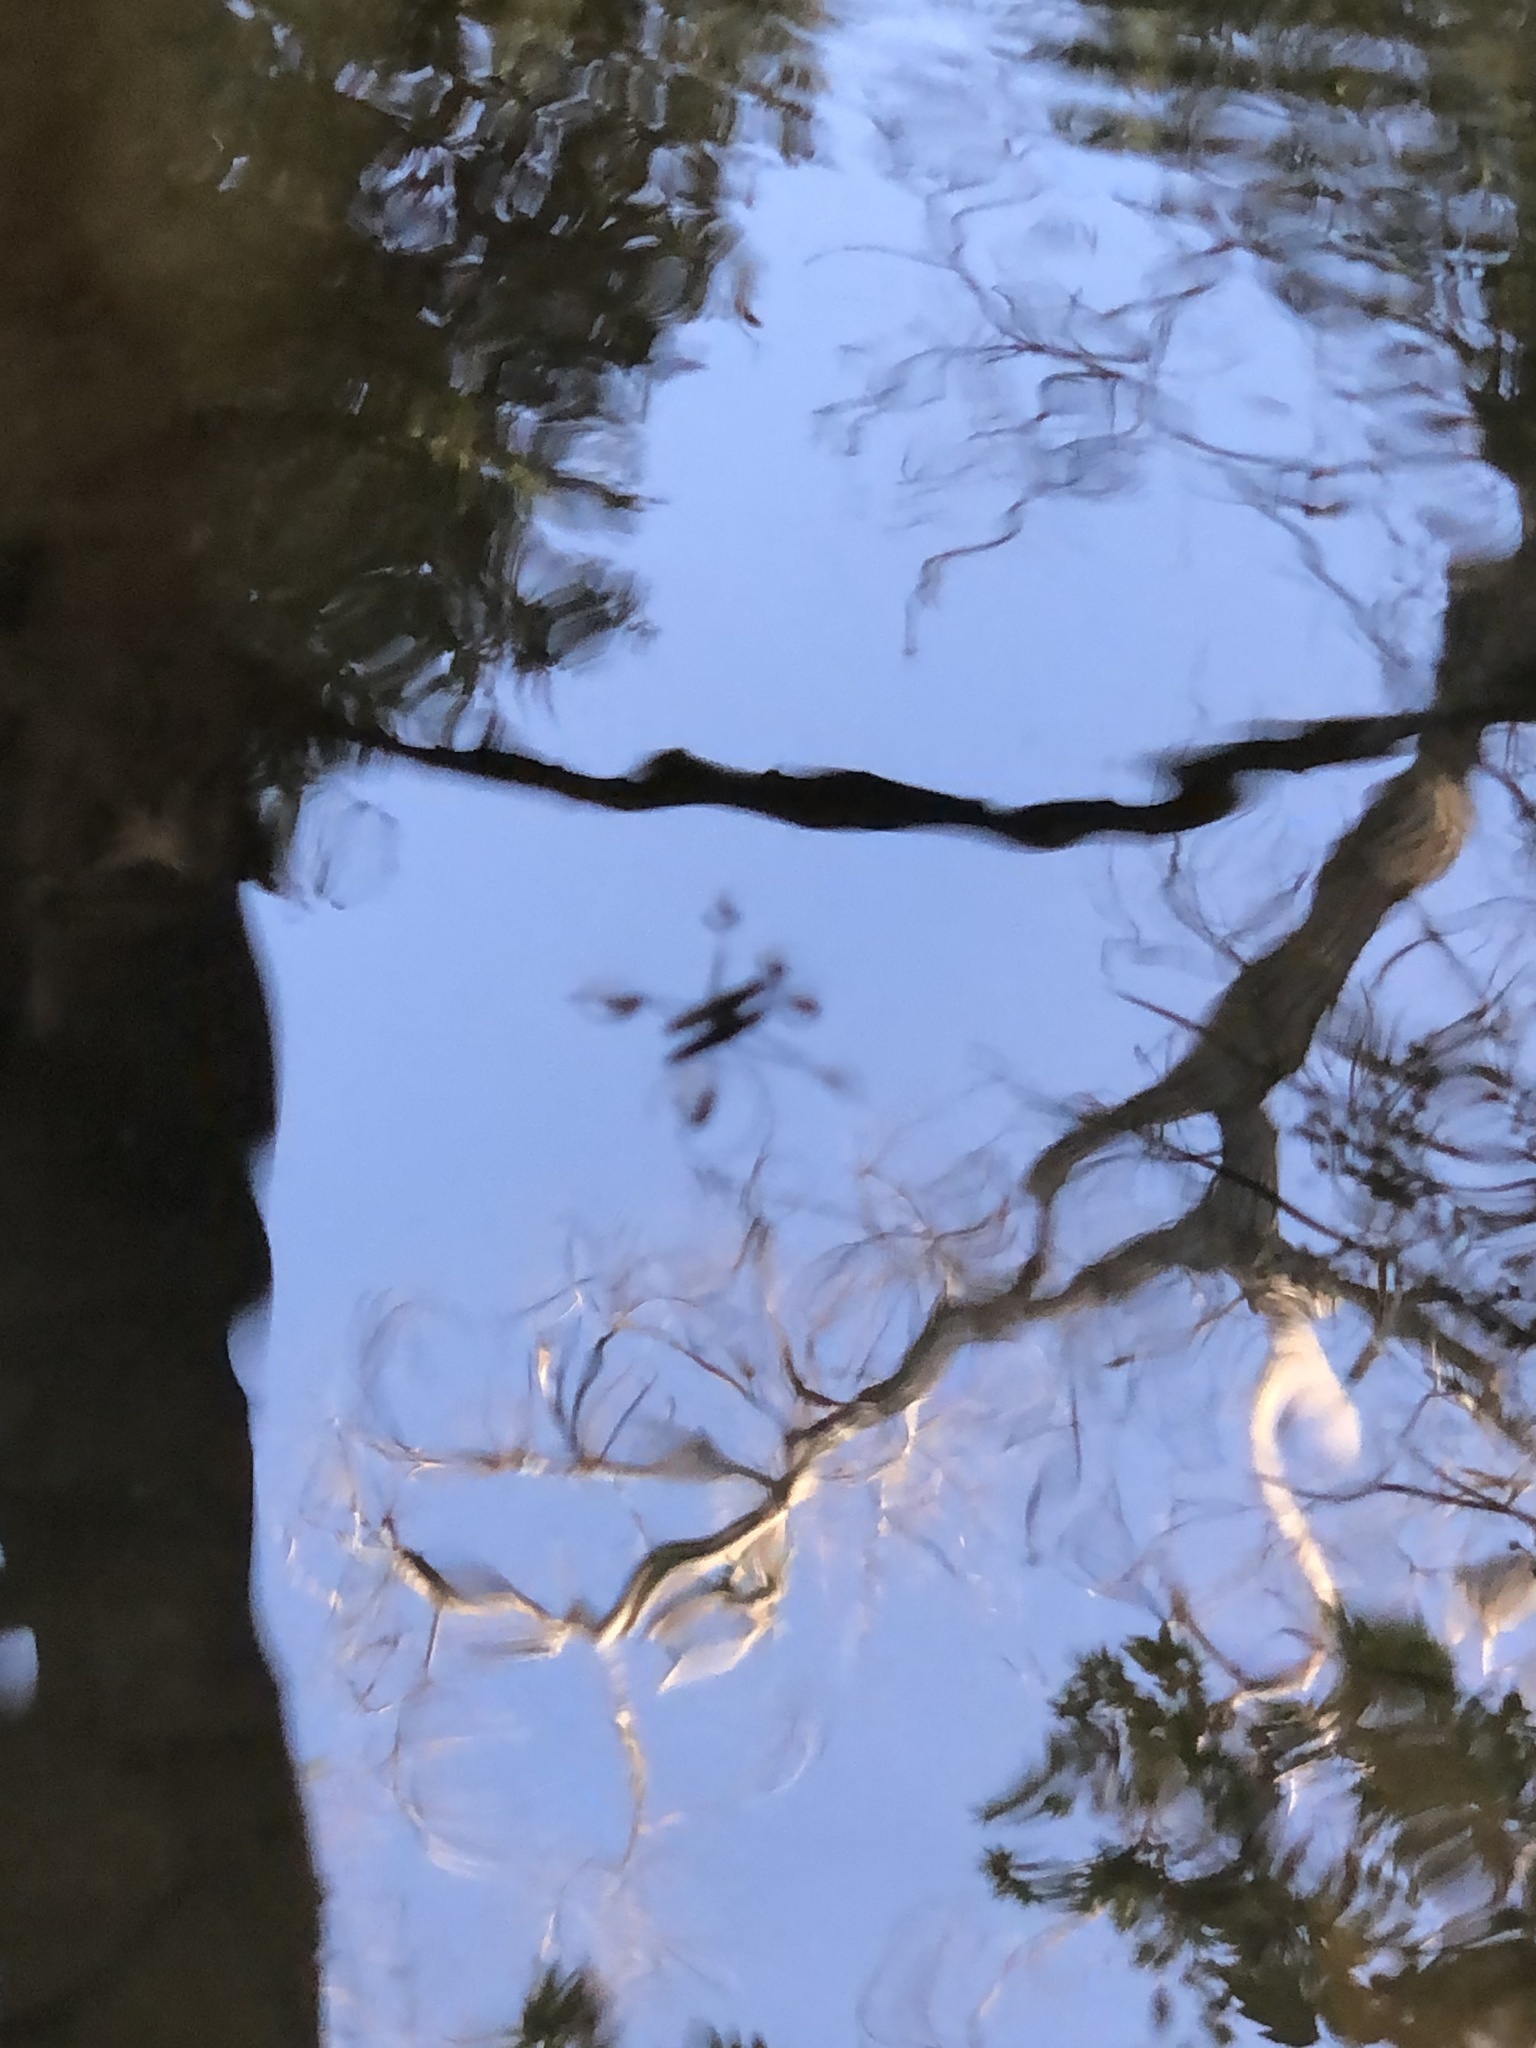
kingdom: Animalia
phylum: Arthropoda
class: Insecta
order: Hemiptera
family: Gerridae
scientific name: Gerridae
